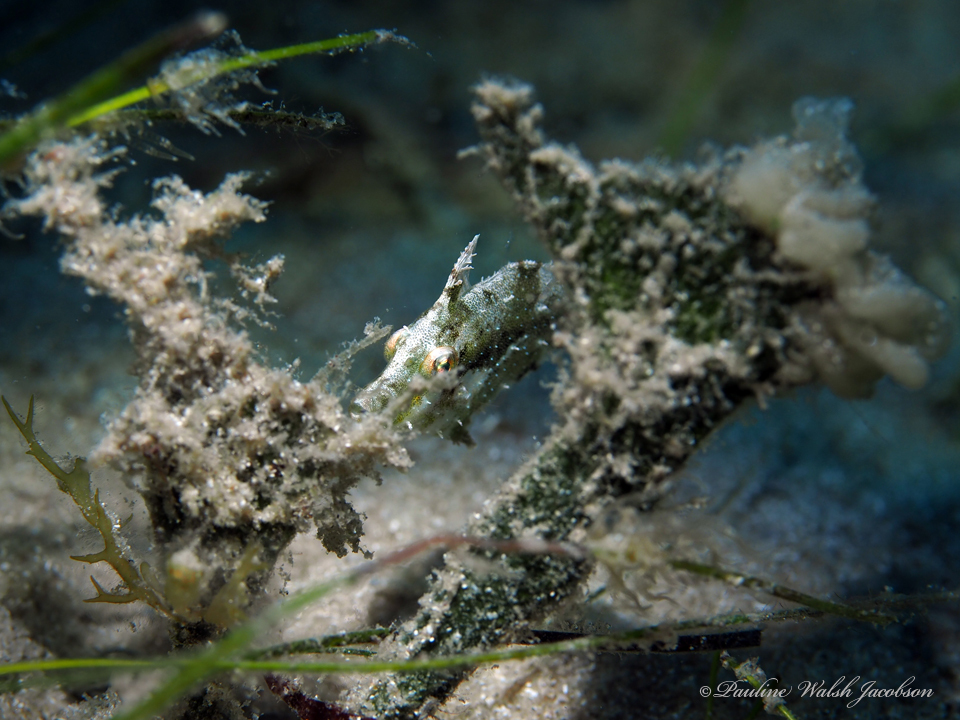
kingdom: Animalia
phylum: Chordata
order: Tetraodontiformes
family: Monacanthidae
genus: Stephanolepis
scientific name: Stephanolepis hispidus
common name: Planehead filefish
